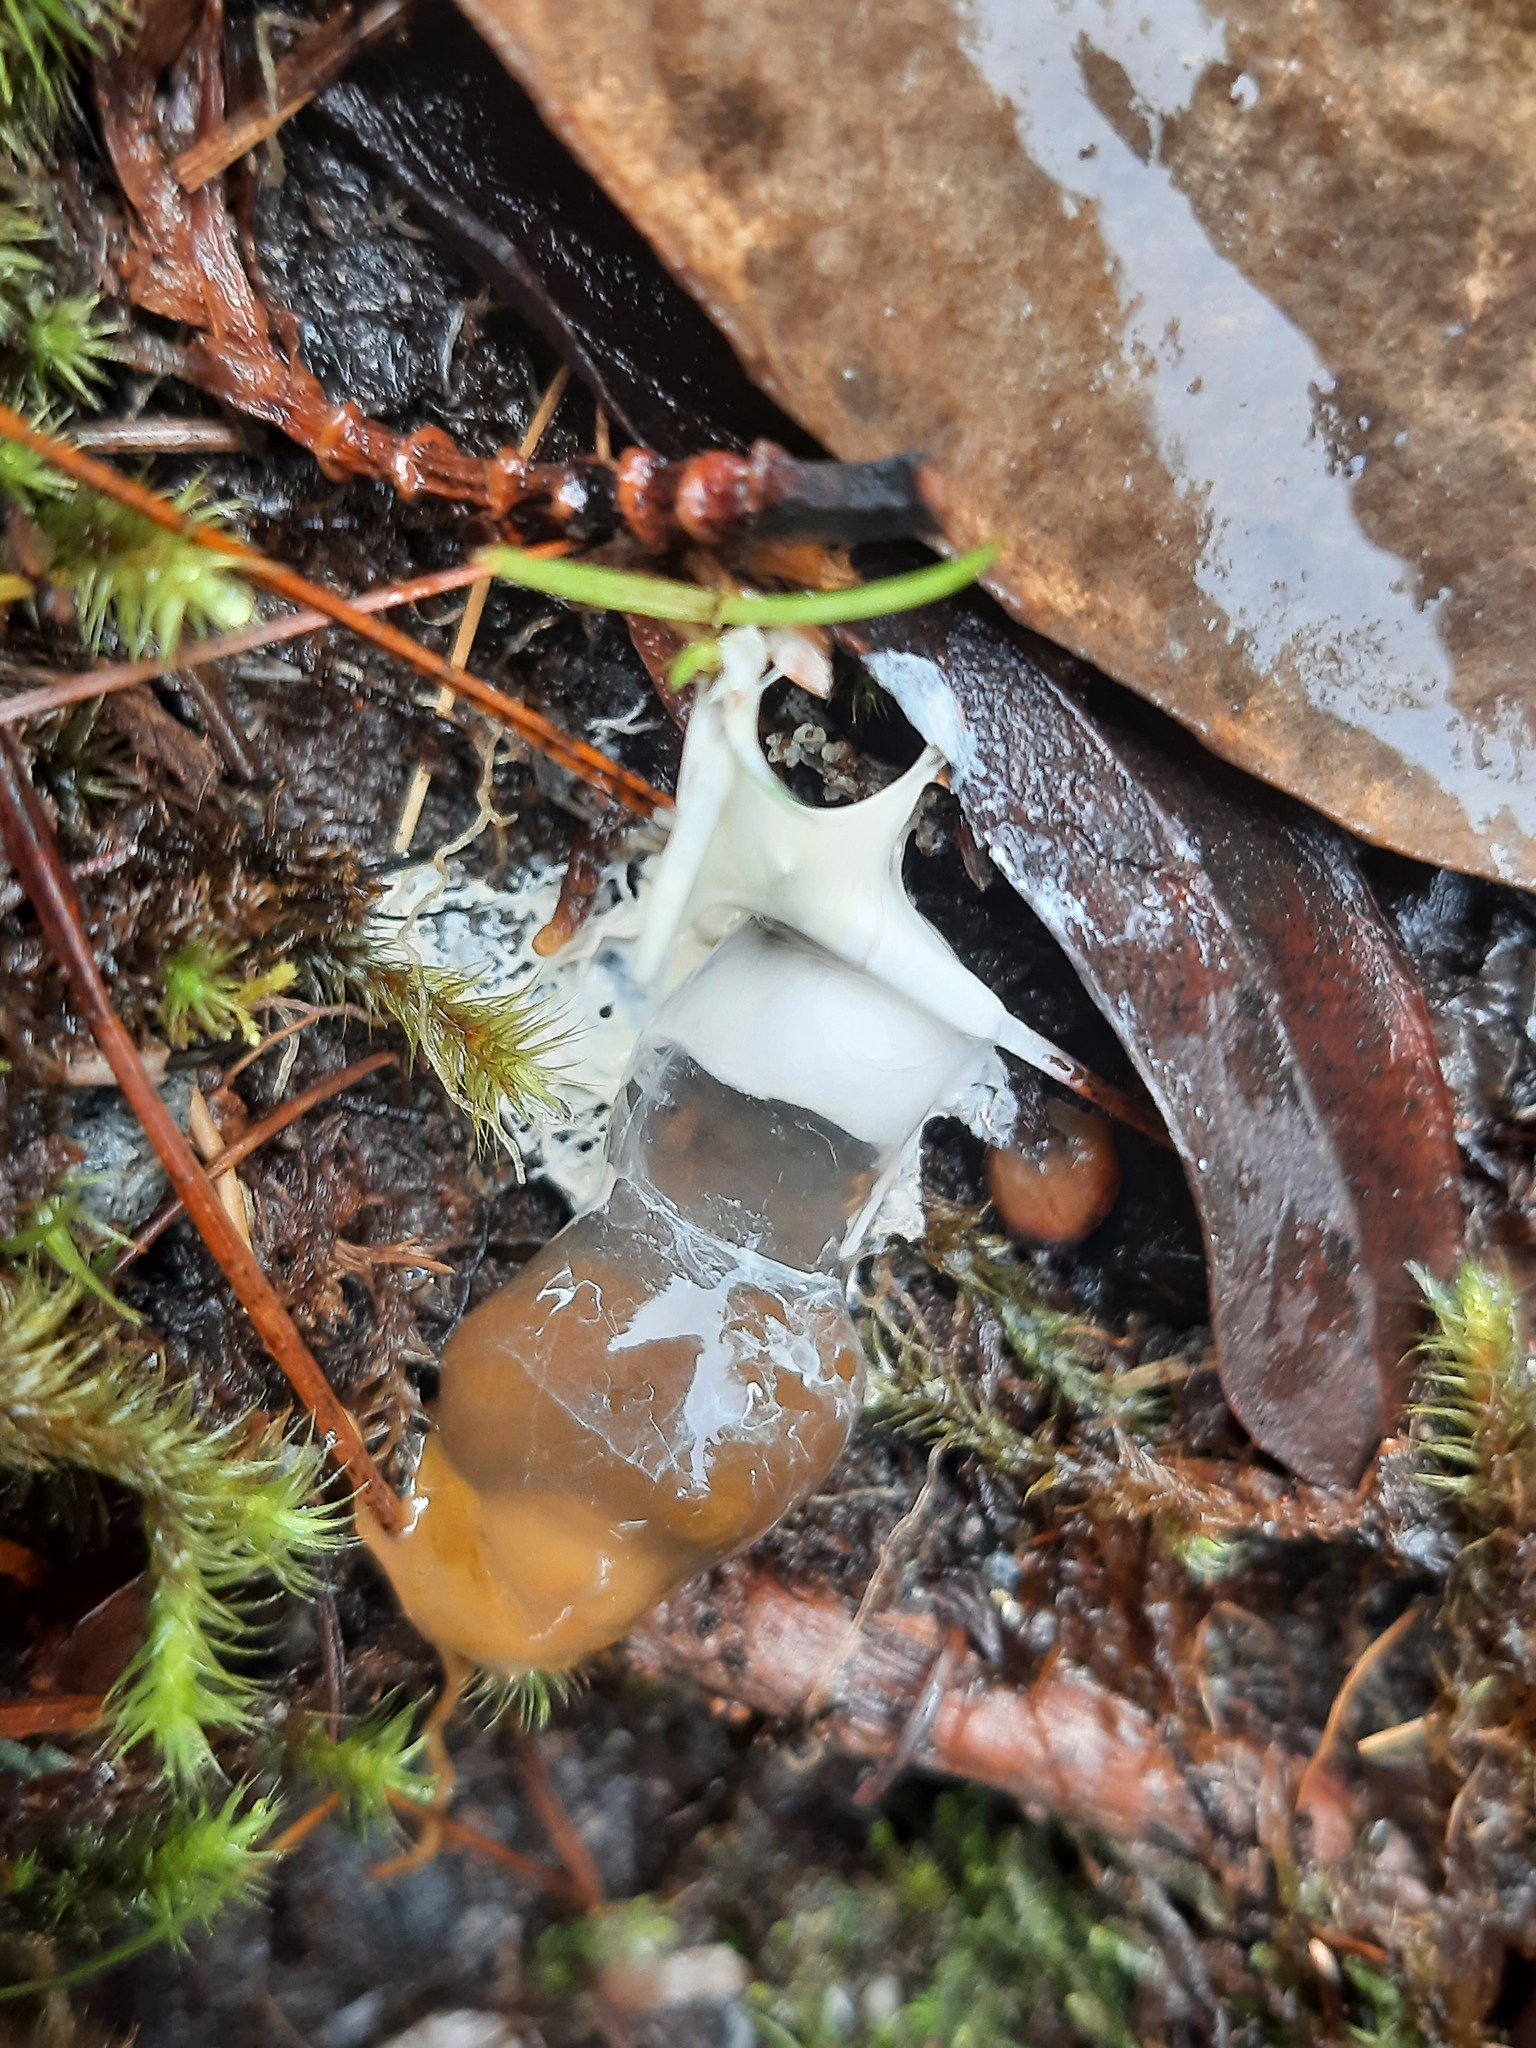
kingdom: Animalia
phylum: Chordata
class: Aves
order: Apterygiformes
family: Apterygidae
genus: Apteryx
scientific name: Apteryx mantelli
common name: North island brown kiwi
